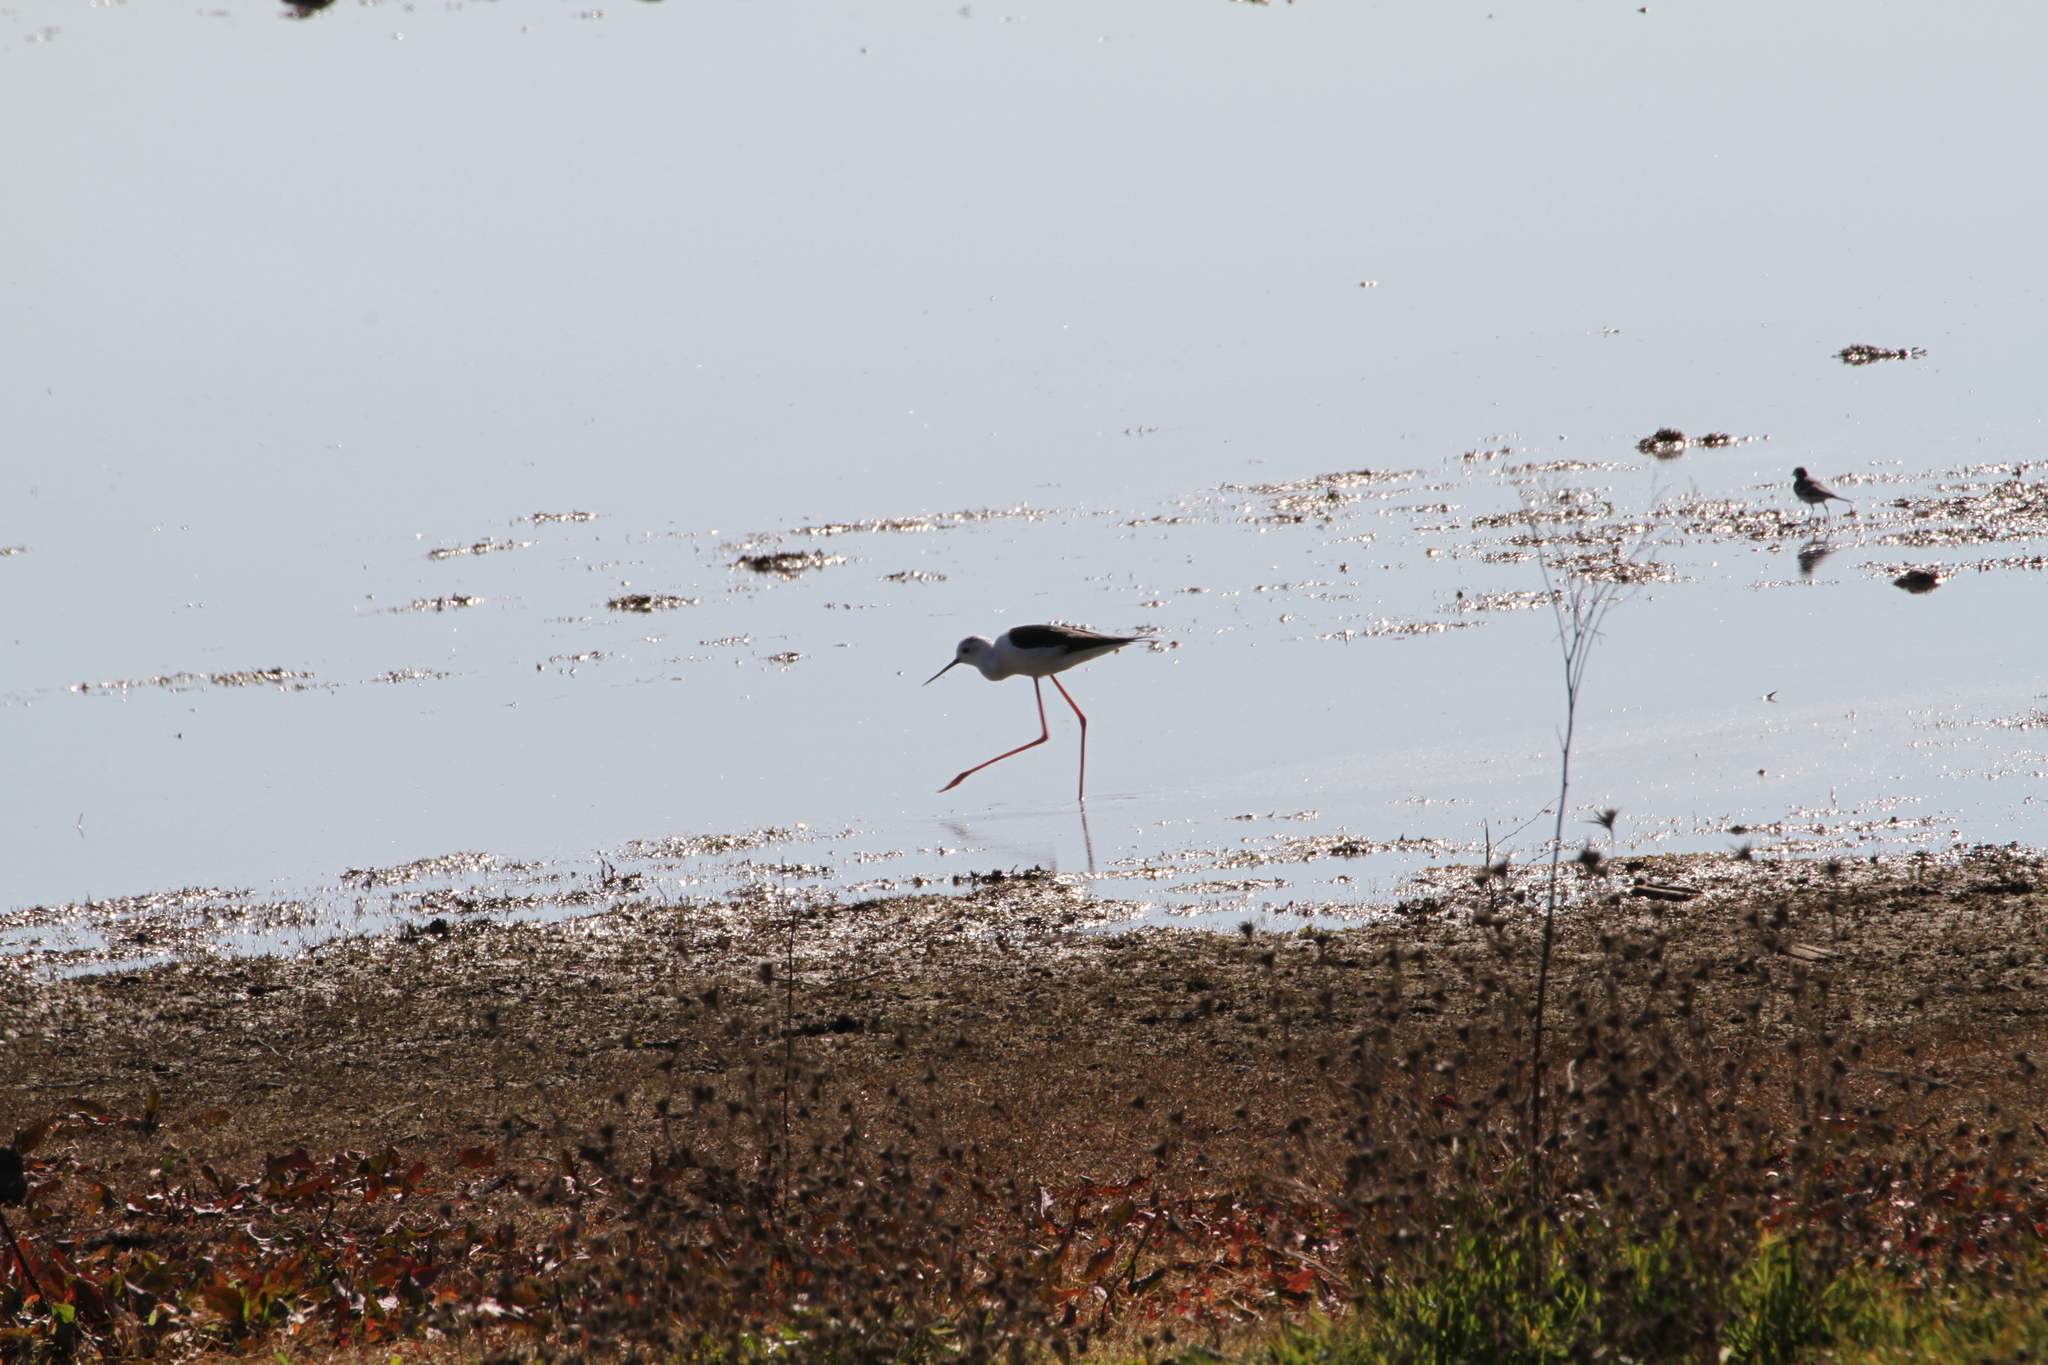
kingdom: Animalia
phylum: Chordata
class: Aves
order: Charadriiformes
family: Recurvirostridae
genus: Himantopus
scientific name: Himantopus himantopus
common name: Black-winged stilt
